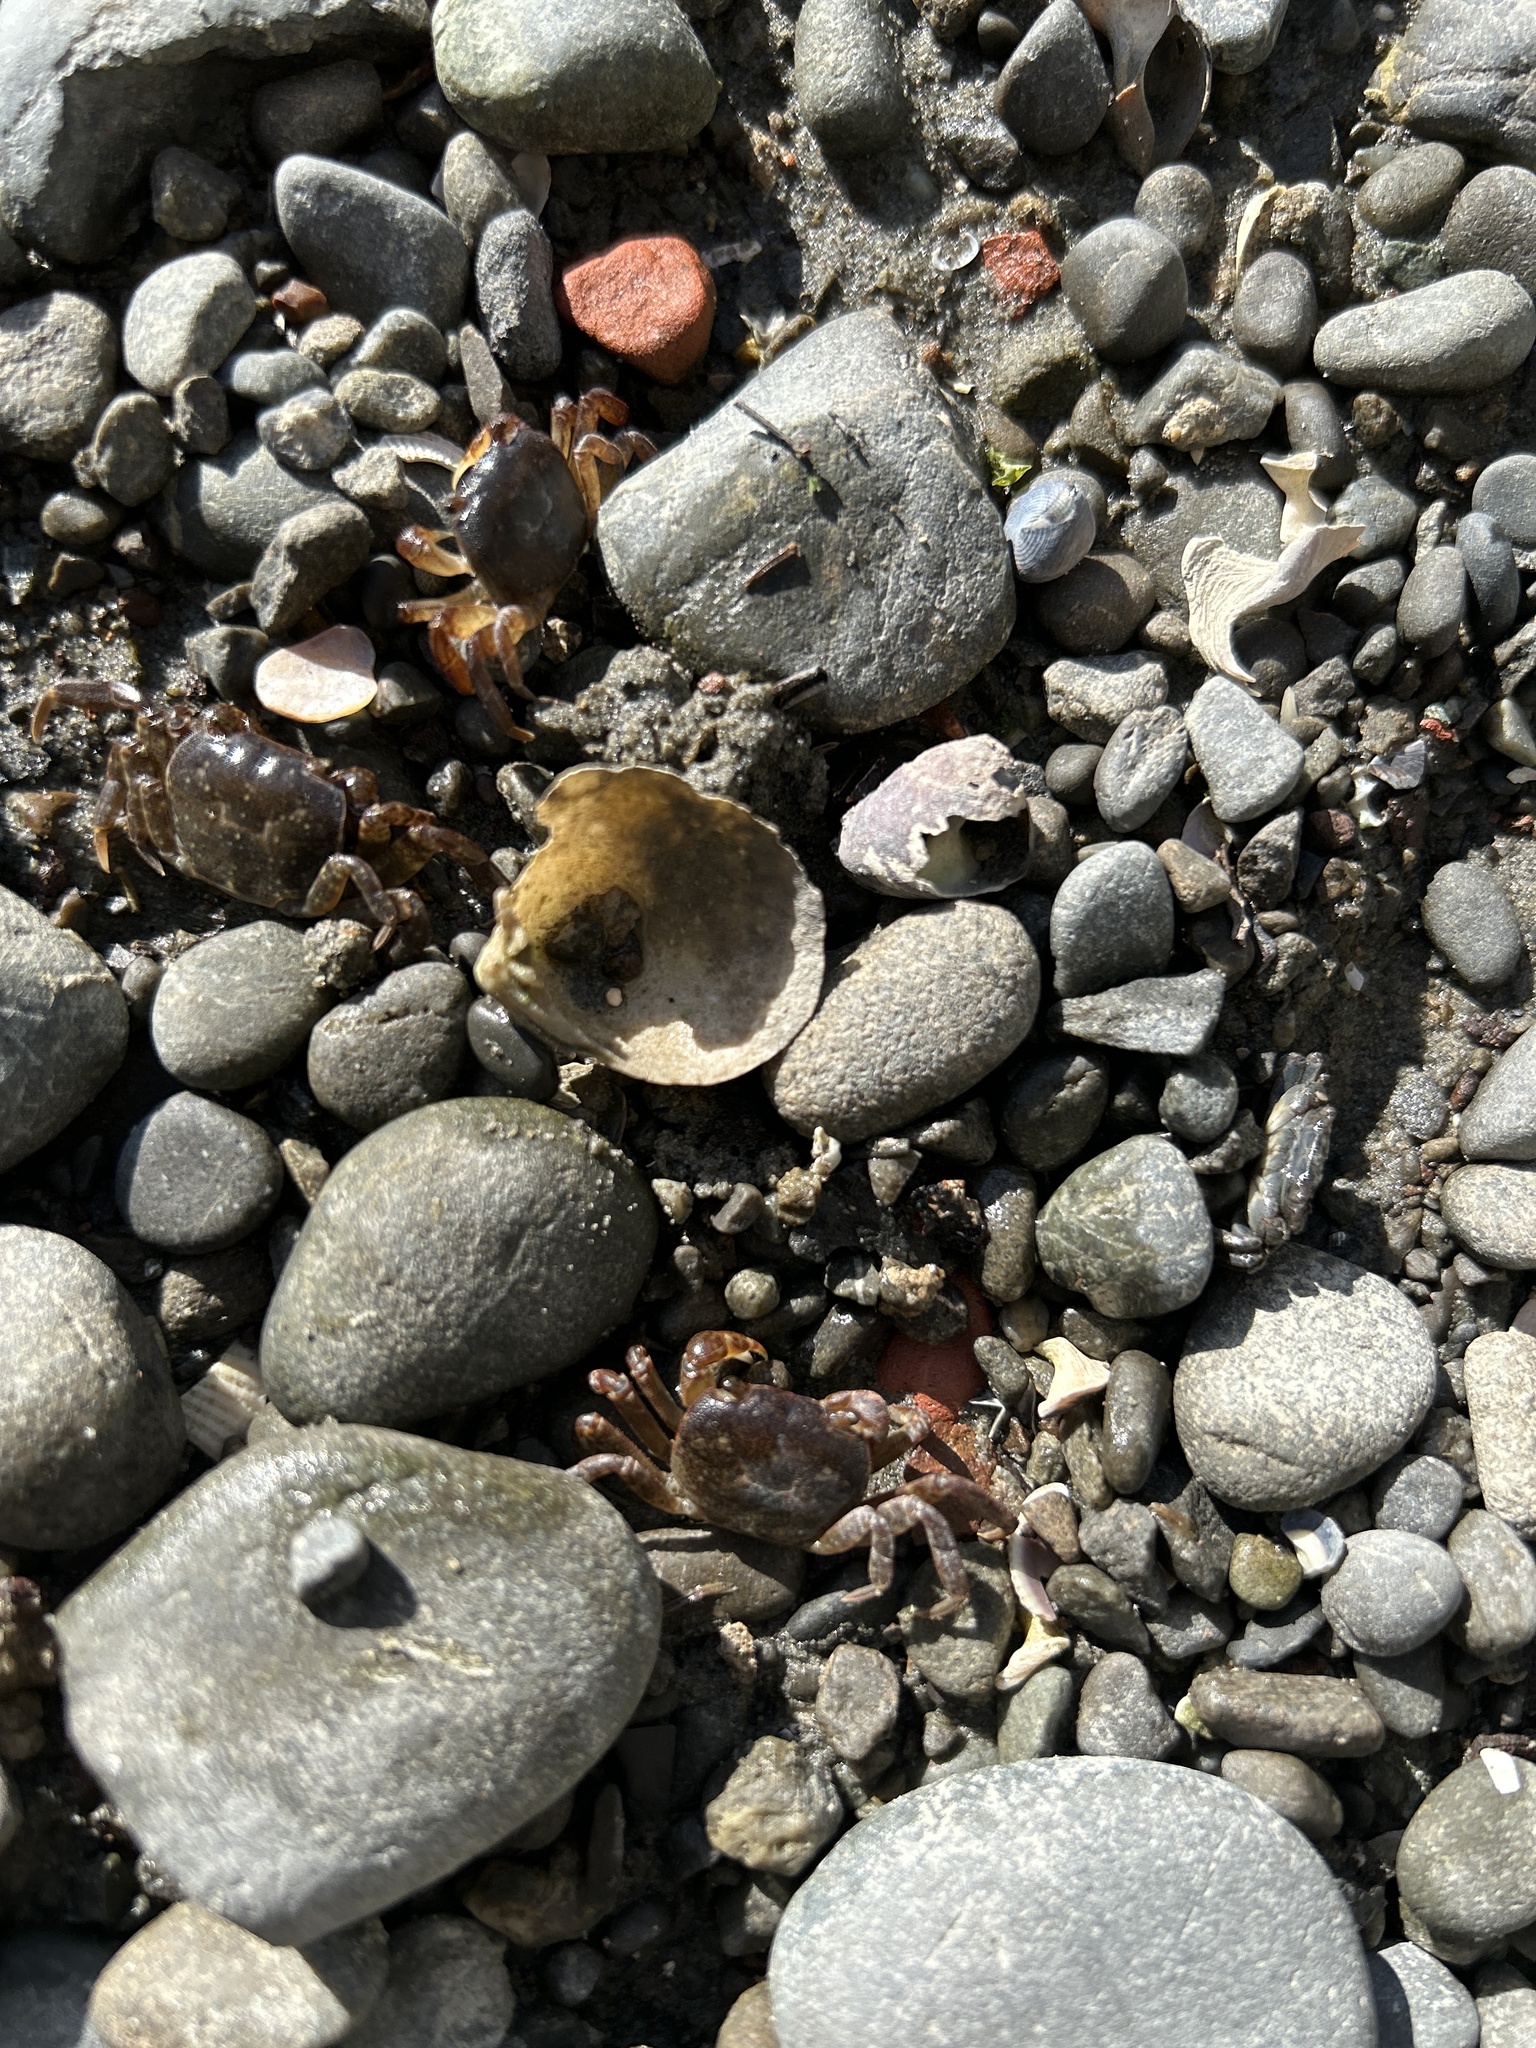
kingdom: Animalia
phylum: Arthropoda
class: Malacostraca
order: Decapoda
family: Varunidae
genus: Cyclograpsus
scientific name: Cyclograpsus lavauxi
